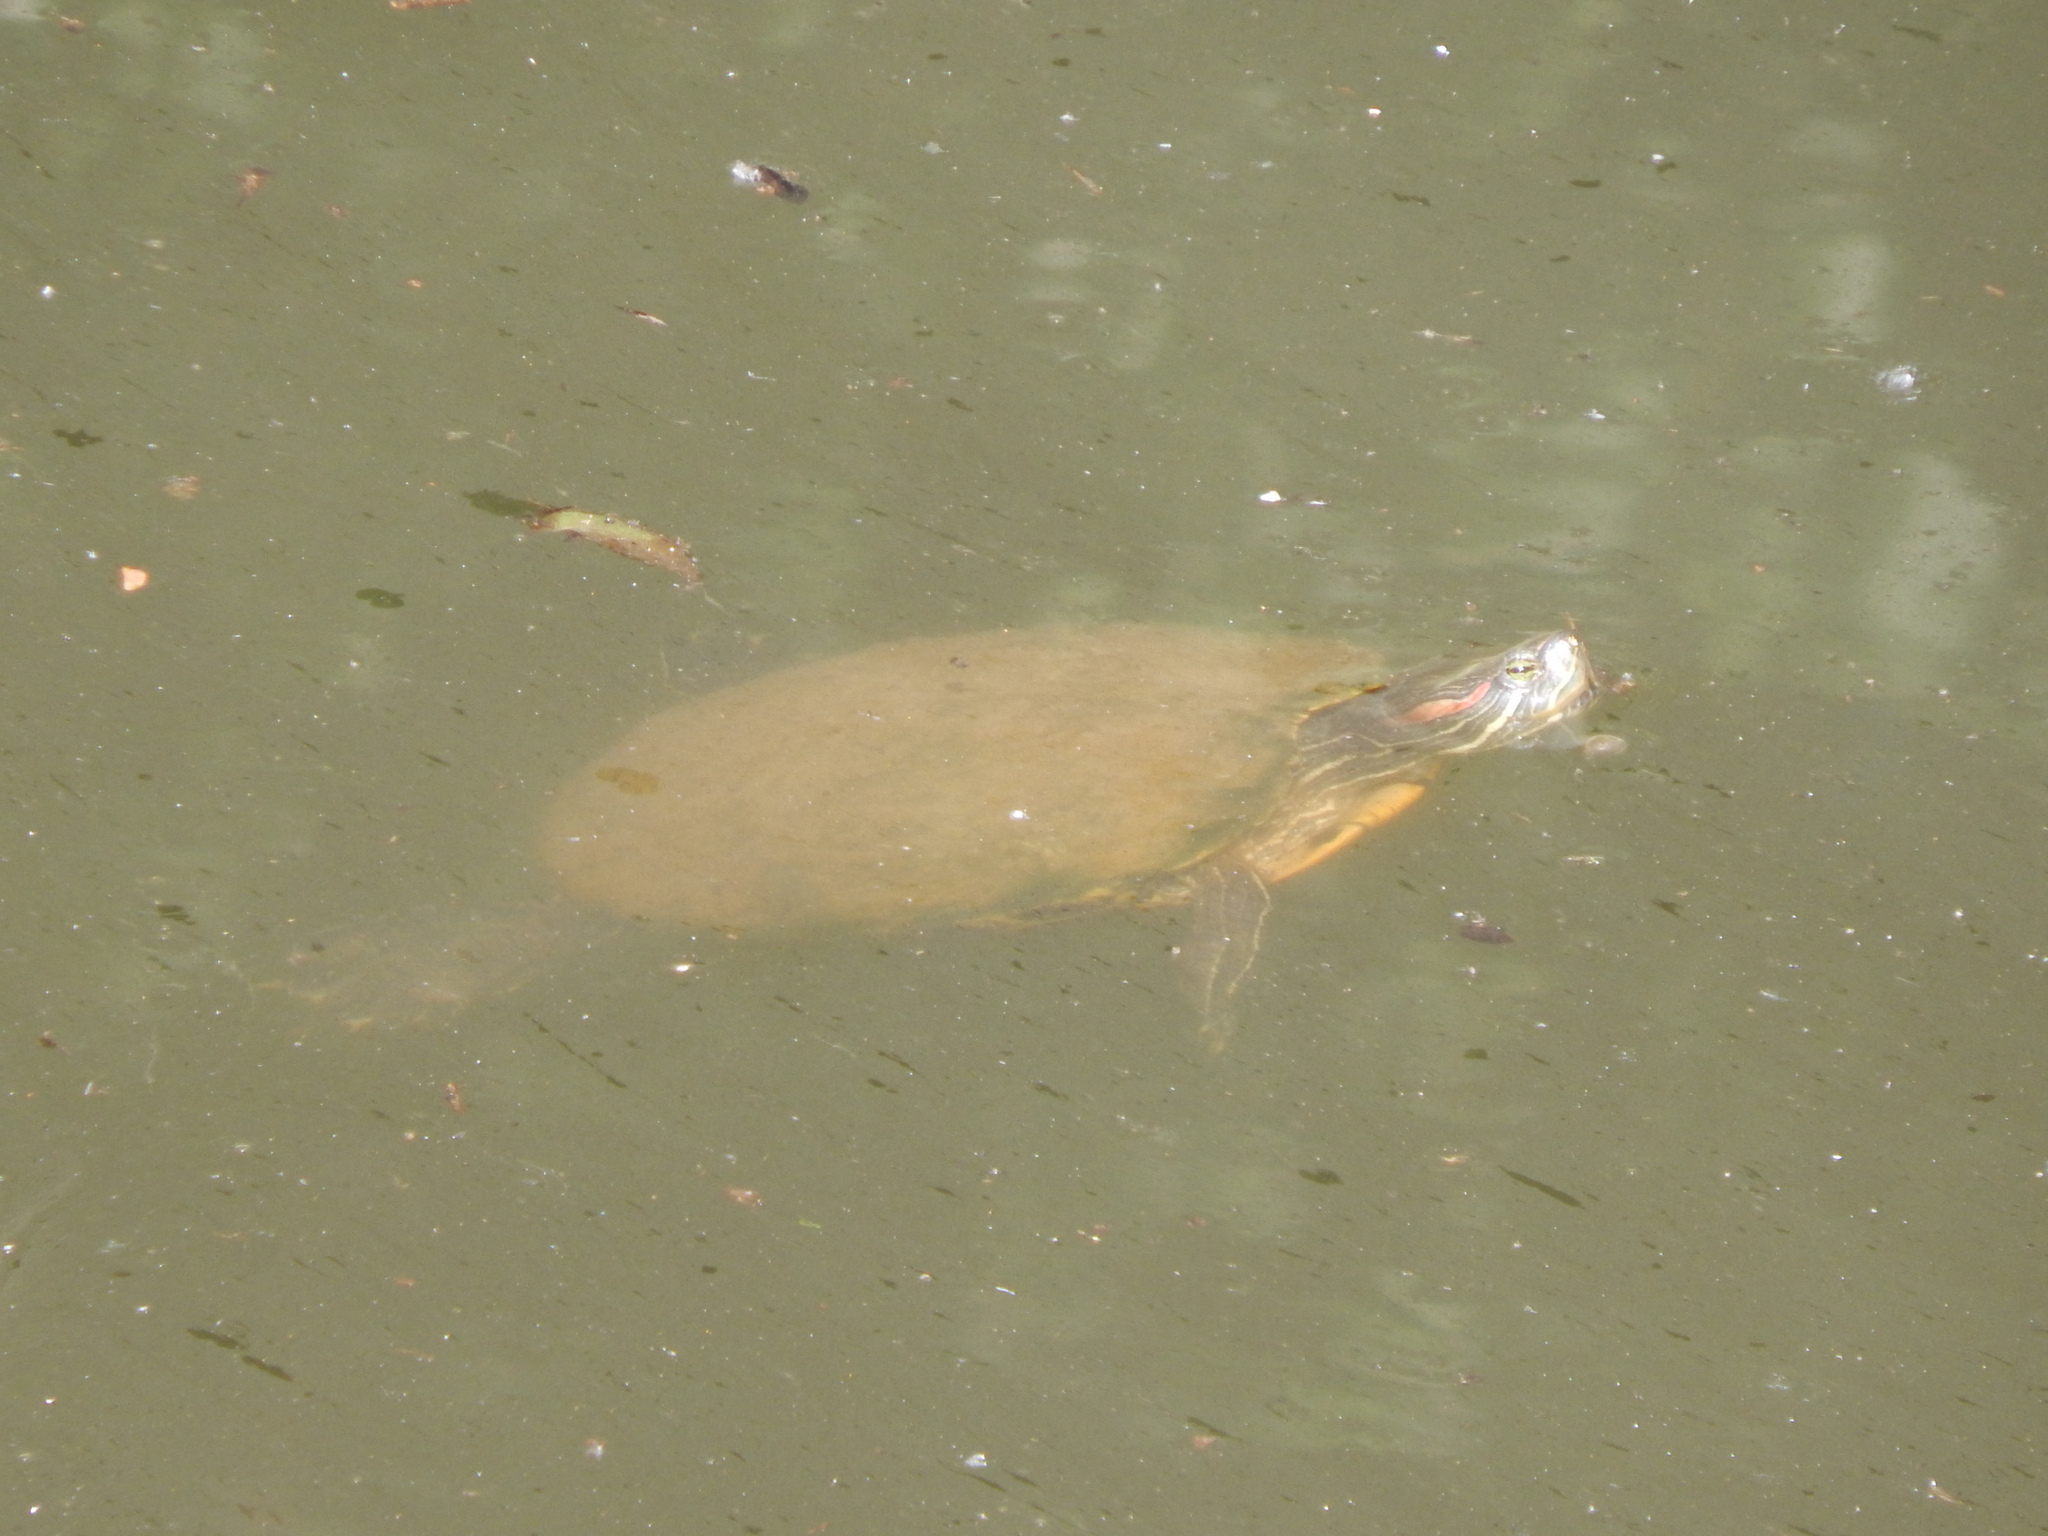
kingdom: Animalia
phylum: Chordata
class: Testudines
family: Emydidae
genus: Trachemys
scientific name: Trachemys scripta
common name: Slider
